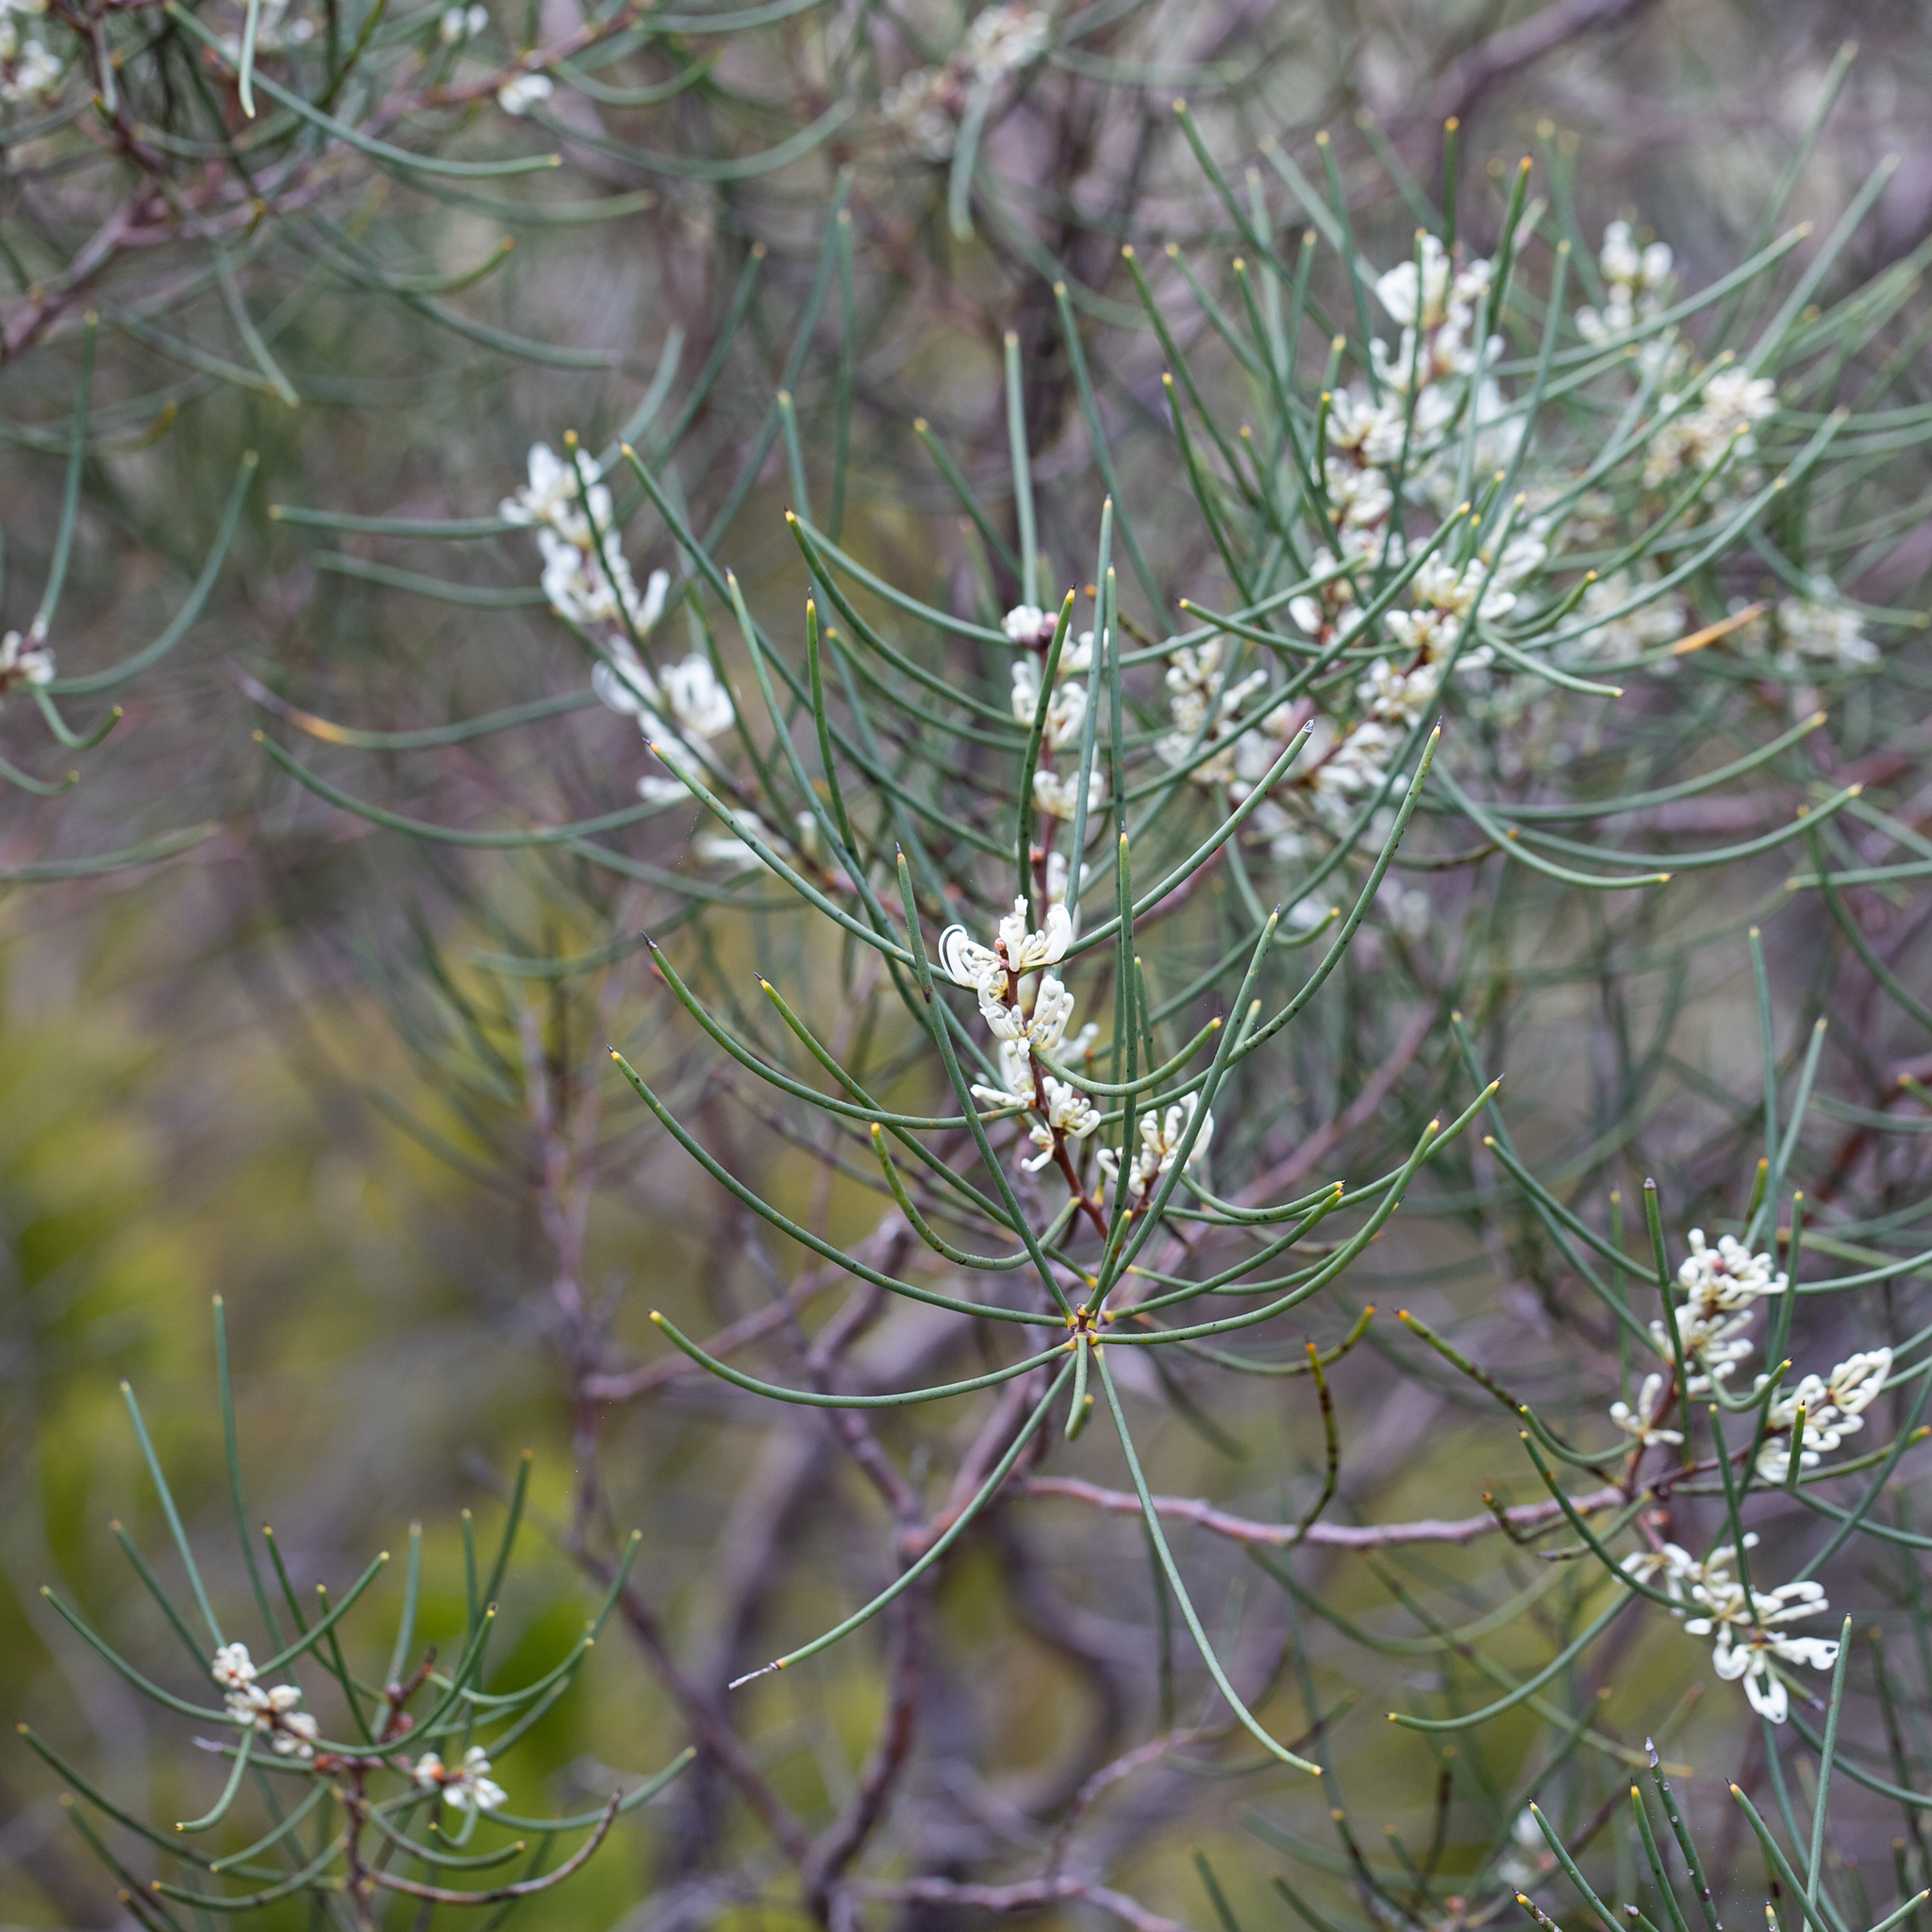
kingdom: Plantae
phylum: Tracheophyta
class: Magnoliopsida
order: Proteales
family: Proteaceae
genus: Hakea
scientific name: Hakea rostrata
